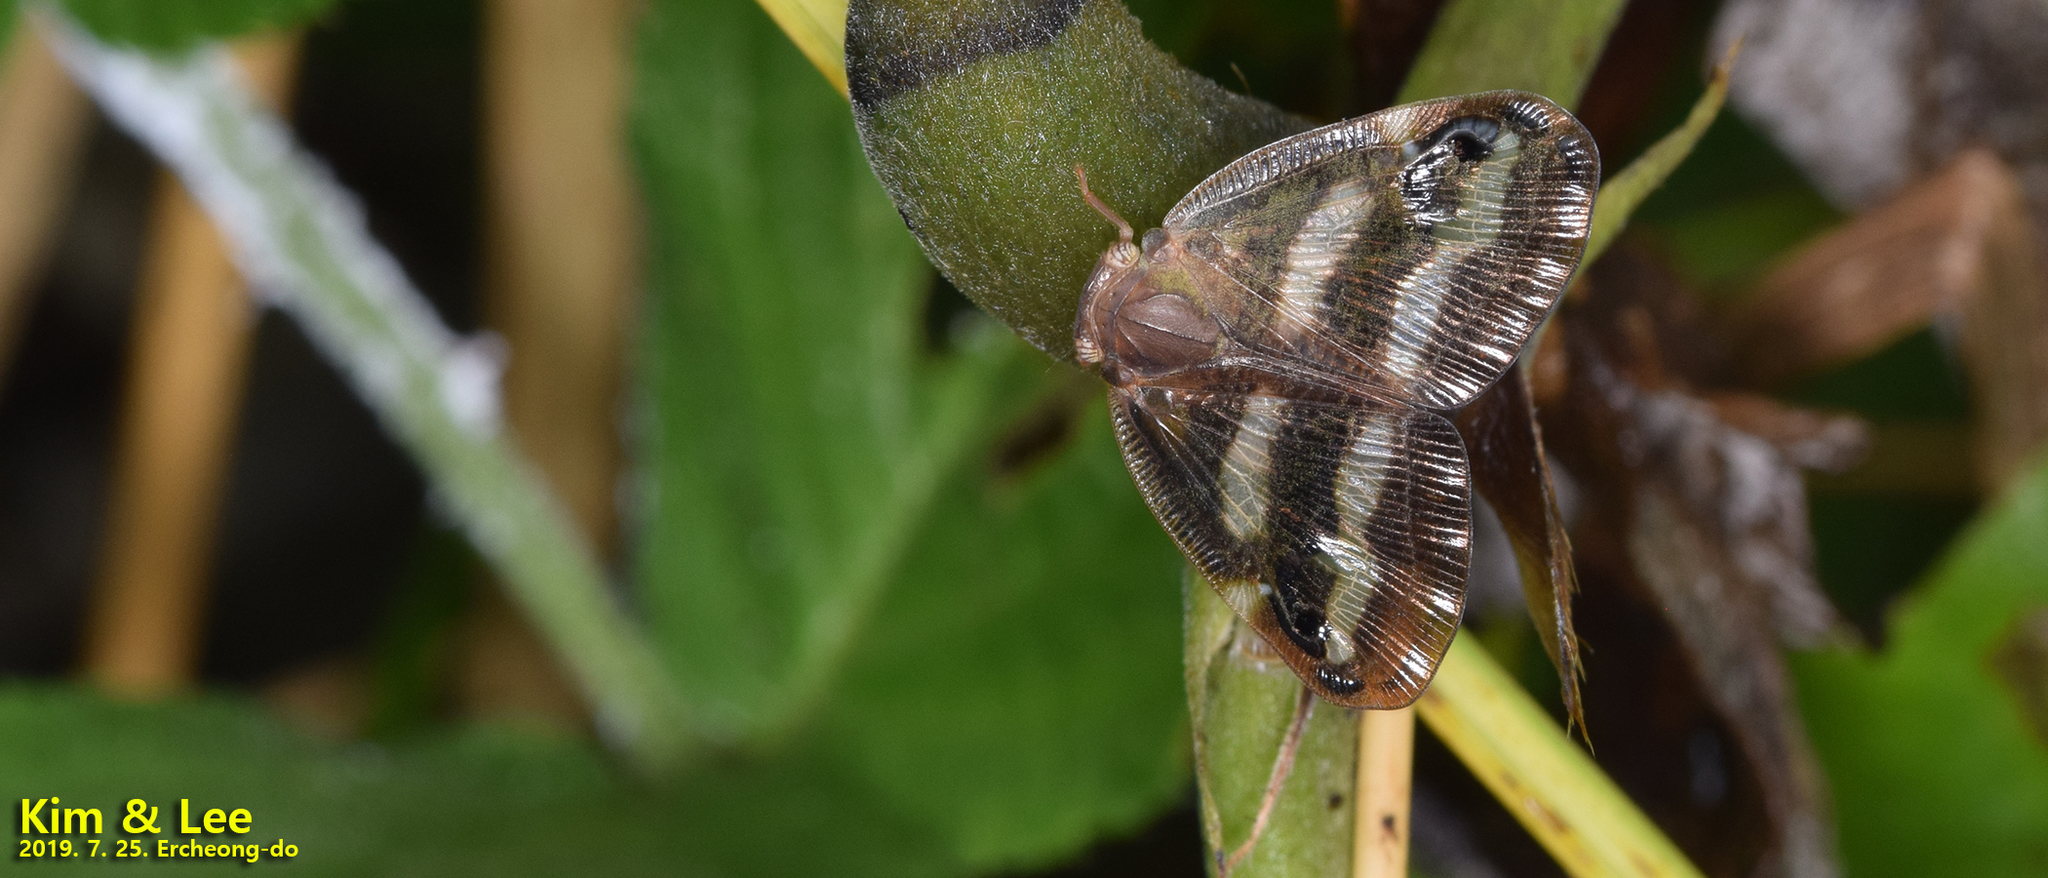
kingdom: Animalia
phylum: Arthropoda
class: Insecta
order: Hemiptera
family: Ricaniidae
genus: Orosanga
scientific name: Orosanga japonica
